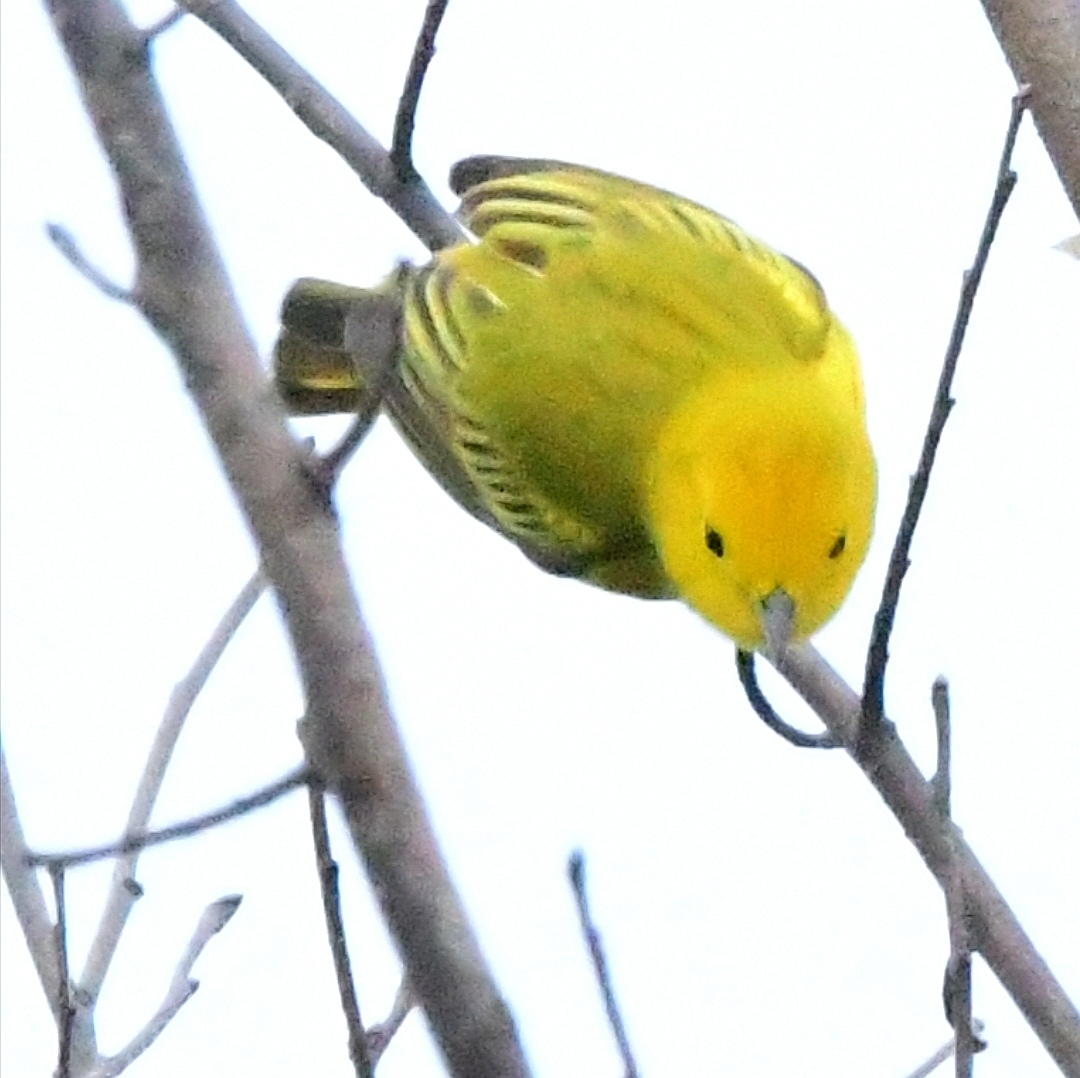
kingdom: Animalia
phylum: Chordata
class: Aves
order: Passeriformes
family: Parulidae
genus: Setophaga
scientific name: Setophaga petechia
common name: Yellow warbler
